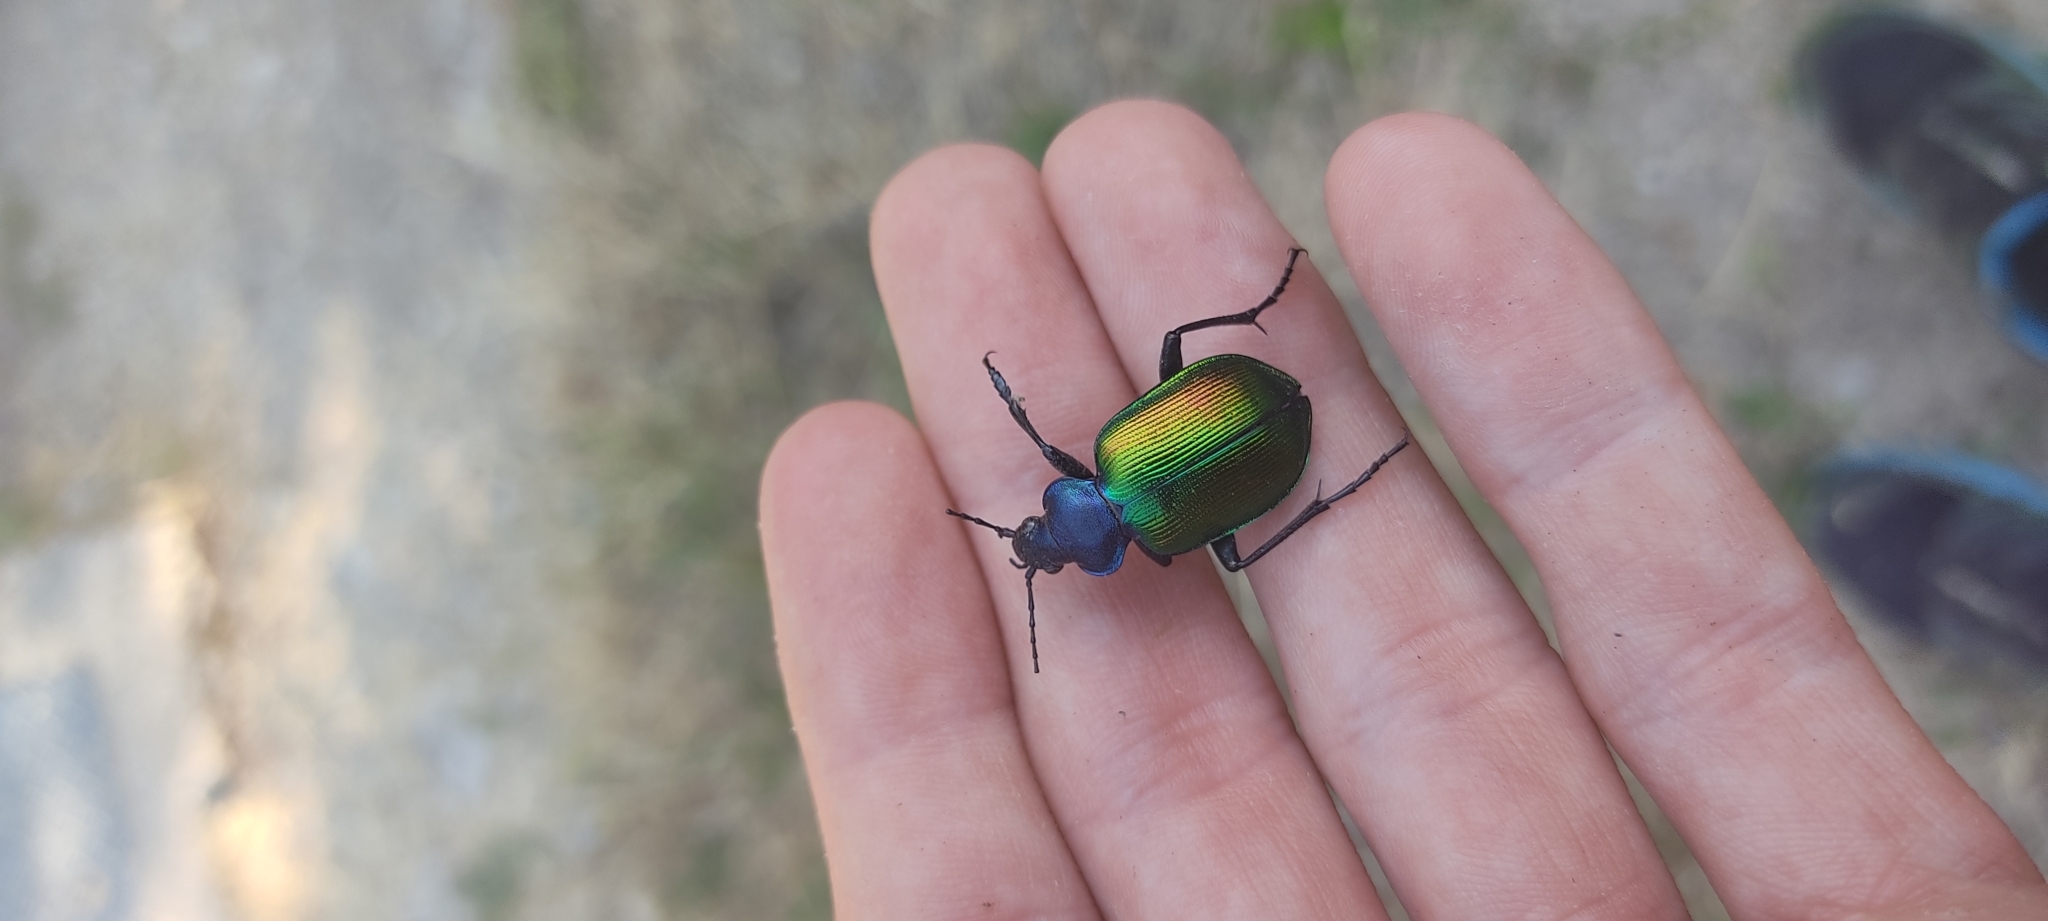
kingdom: Animalia
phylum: Arthropoda
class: Insecta
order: Coleoptera
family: Carabidae
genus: Calosoma
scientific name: Calosoma sycophanta
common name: Forest caterpillar hunter
